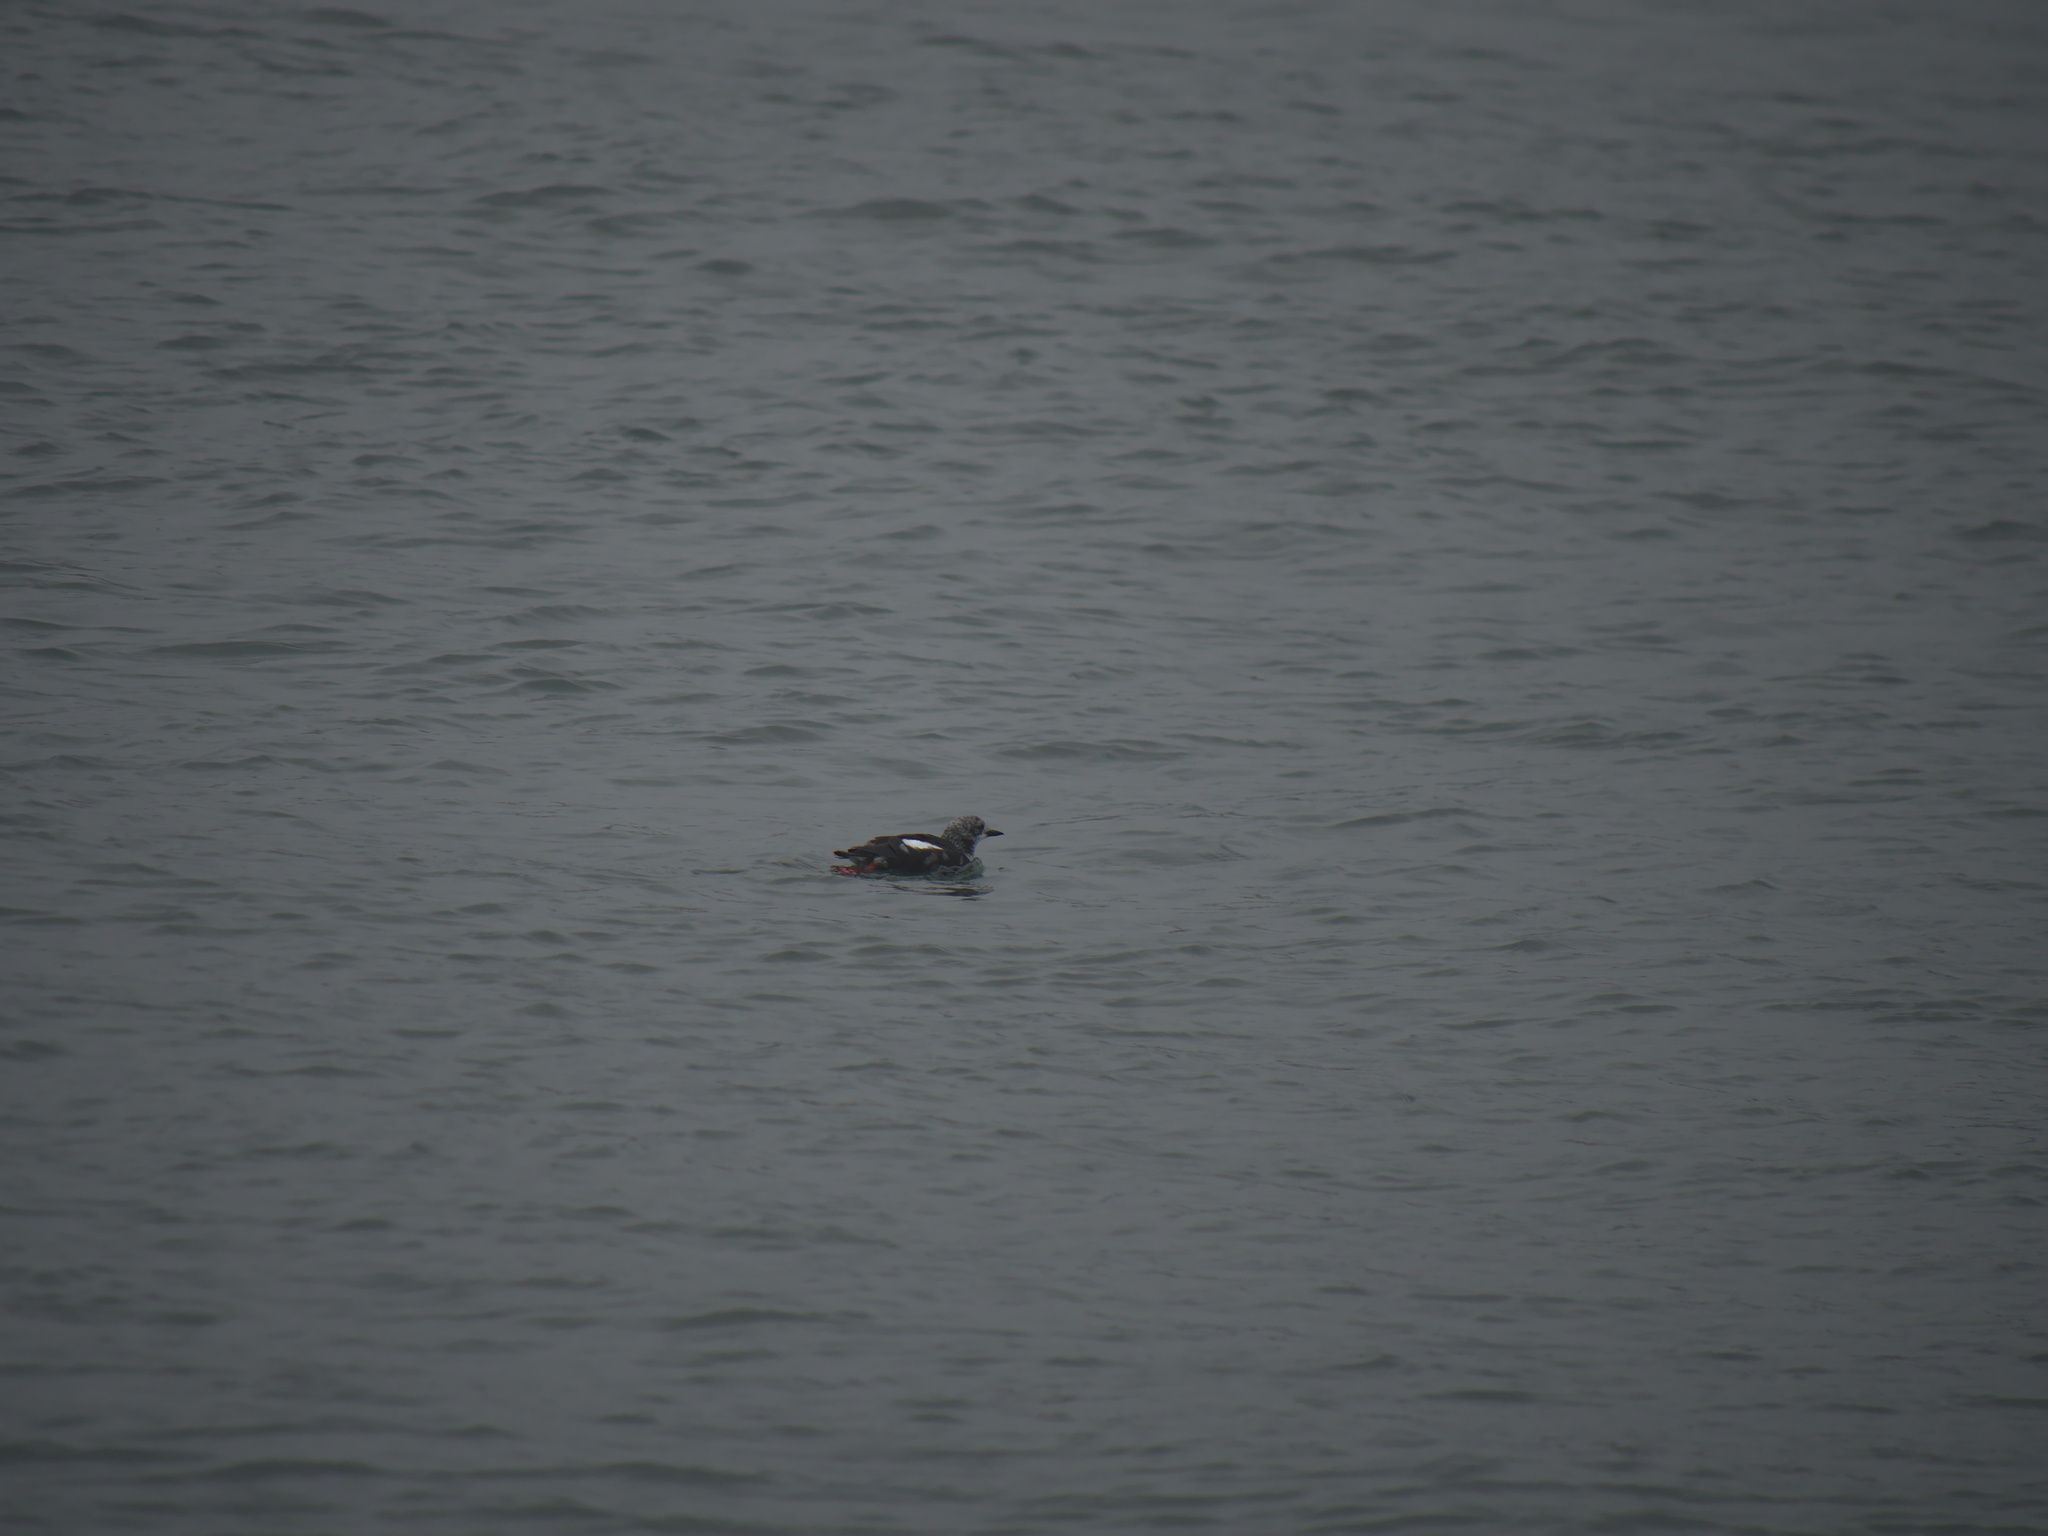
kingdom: Animalia
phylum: Chordata
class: Aves
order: Charadriiformes
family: Alcidae
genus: Cepphus
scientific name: Cepphus grylle
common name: Black guillemot
